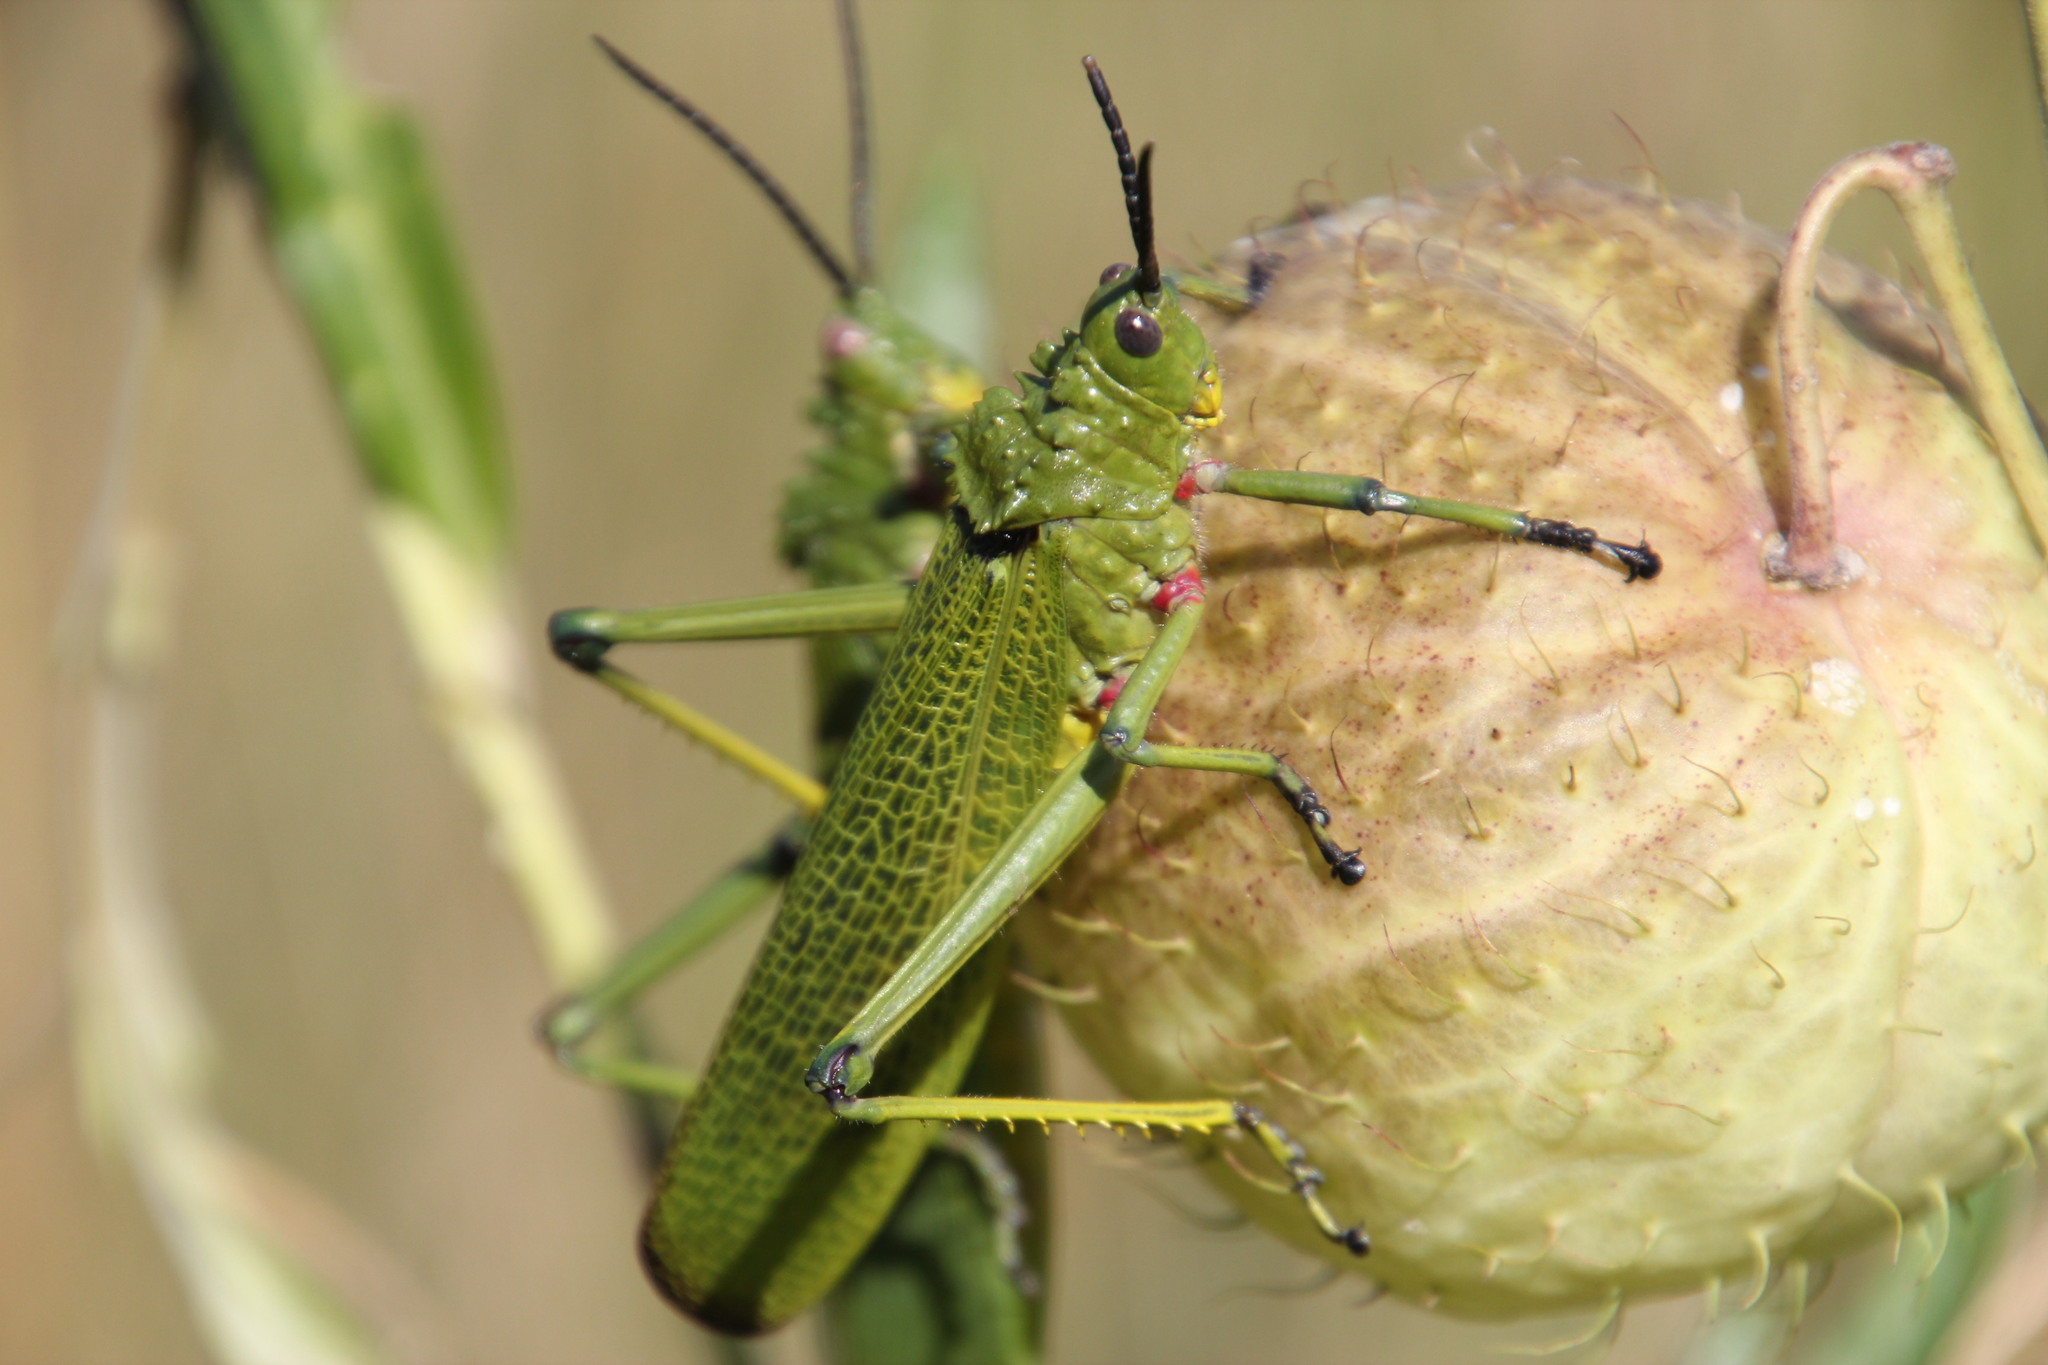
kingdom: Animalia
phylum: Arthropoda
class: Insecta
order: Orthoptera
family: Pyrgomorphidae
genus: Phymateus
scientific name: Phymateus viridipes
